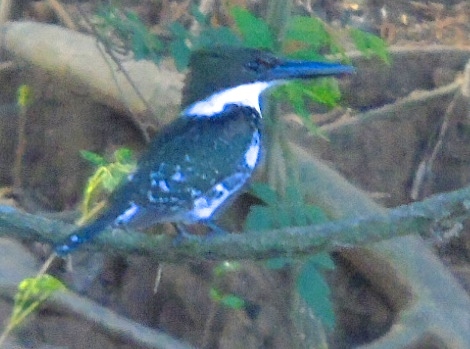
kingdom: Animalia
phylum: Chordata
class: Aves
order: Coraciiformes
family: Alcedinidae
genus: Chloroceryle
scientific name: Chloroceryle americana
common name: Green kingfisher
